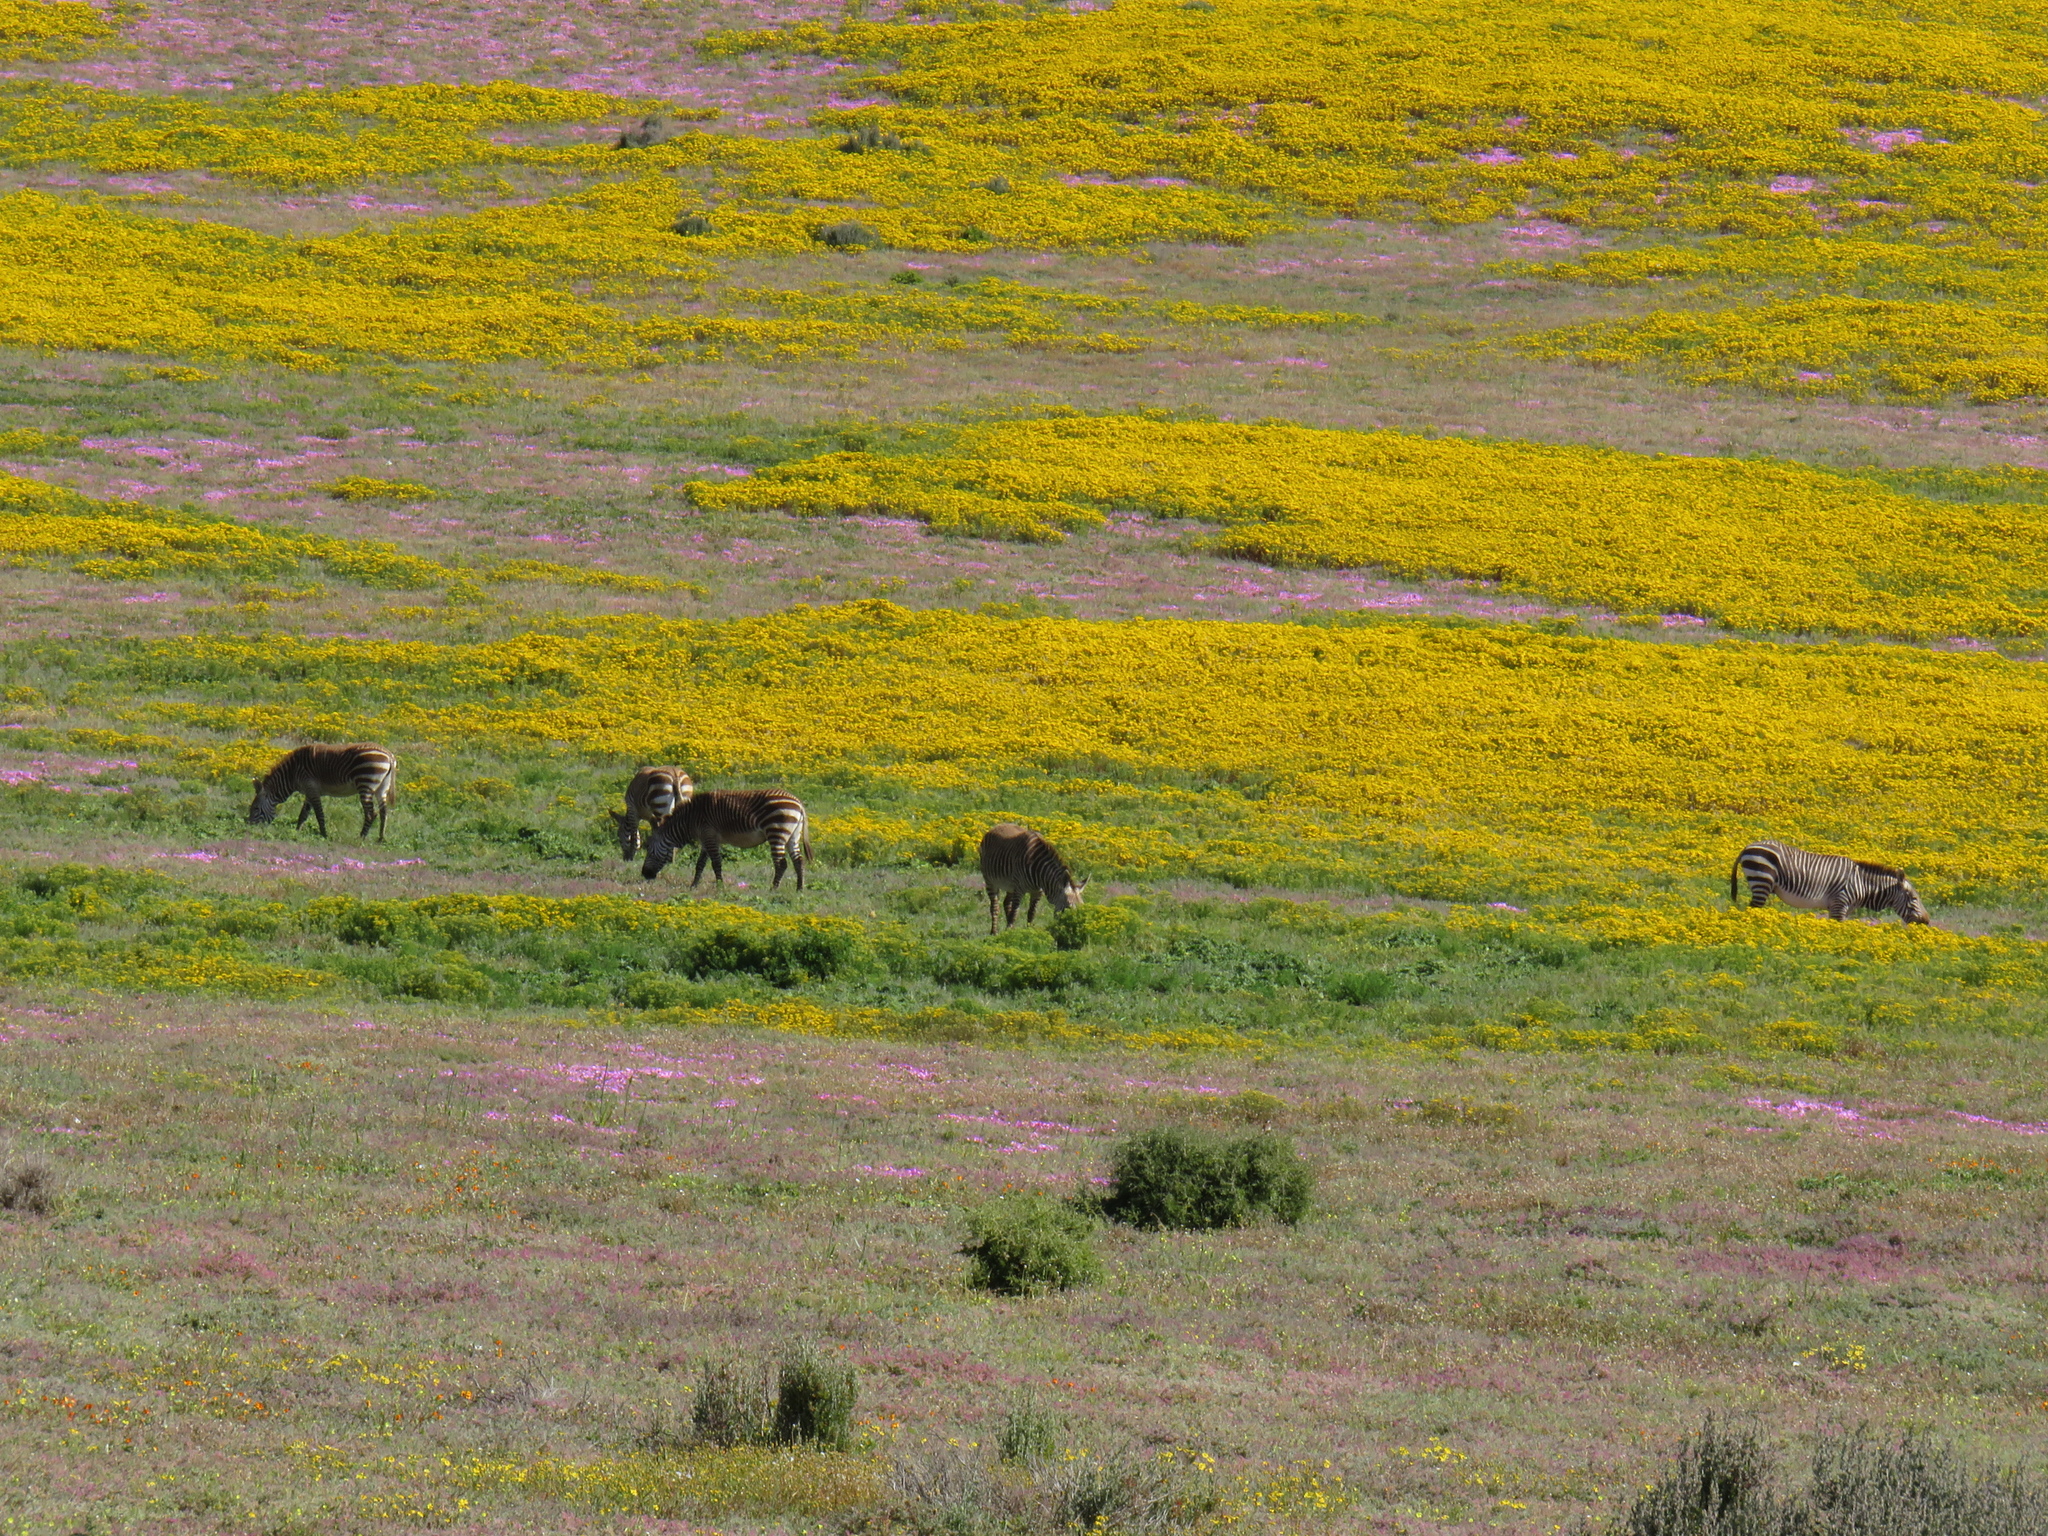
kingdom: Animalia
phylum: Chordata
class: Mammalia
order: Perissodactyla
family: Equidae
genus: Equus
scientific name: Equus zebra
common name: Mountain zebra
